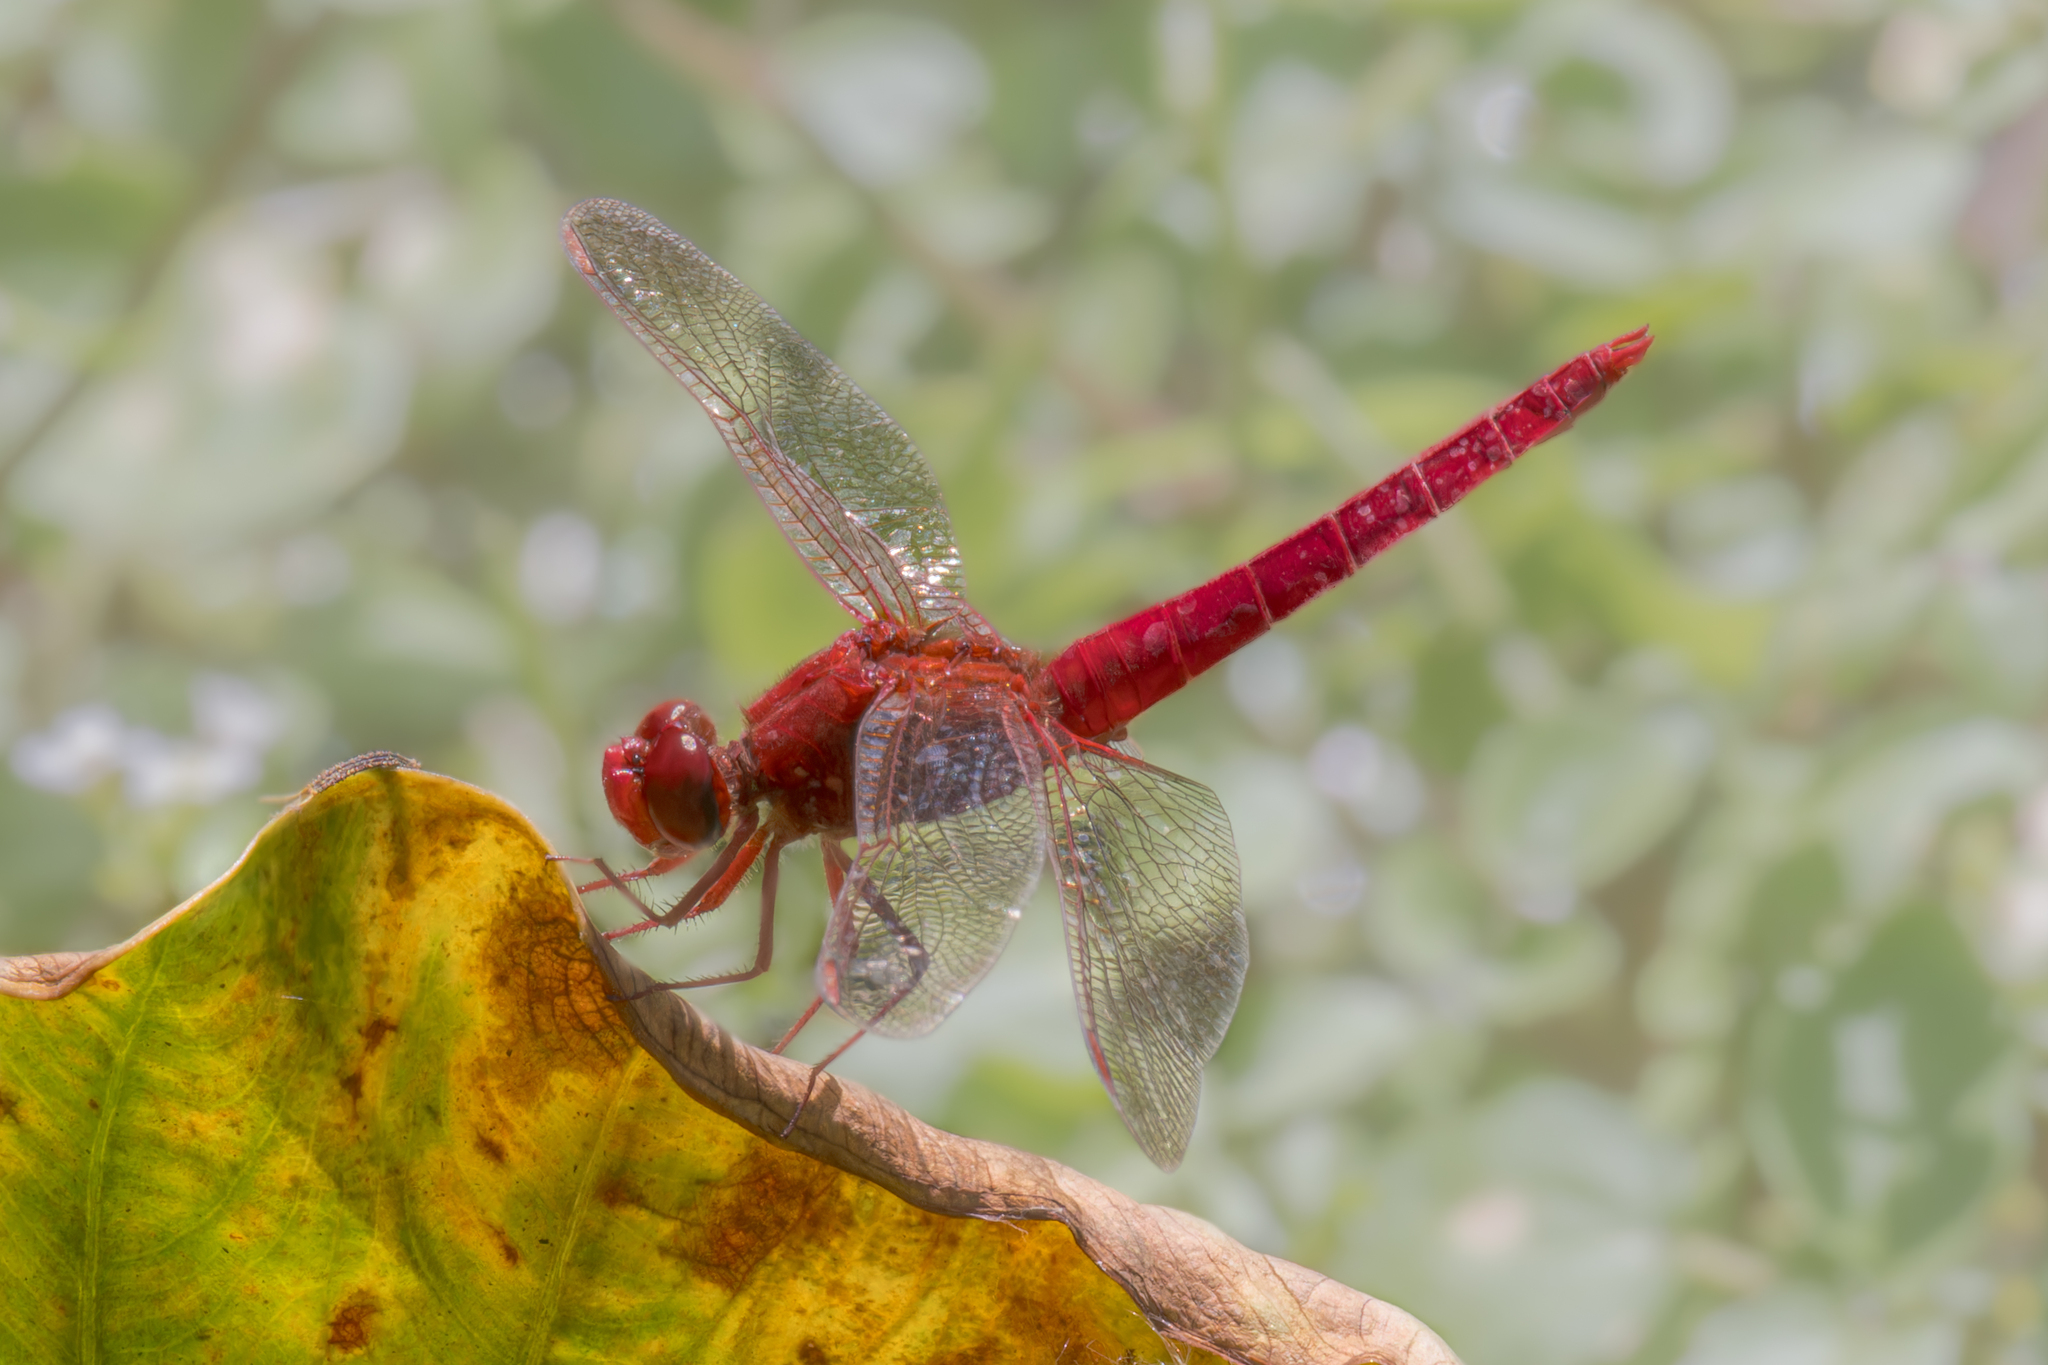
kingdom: Animalia
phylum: Arthropoda
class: Insecta
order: Odonata
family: Libellulidae
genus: Crocothemis
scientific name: Crocothemis erythraea
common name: Scarlet dragonfly
